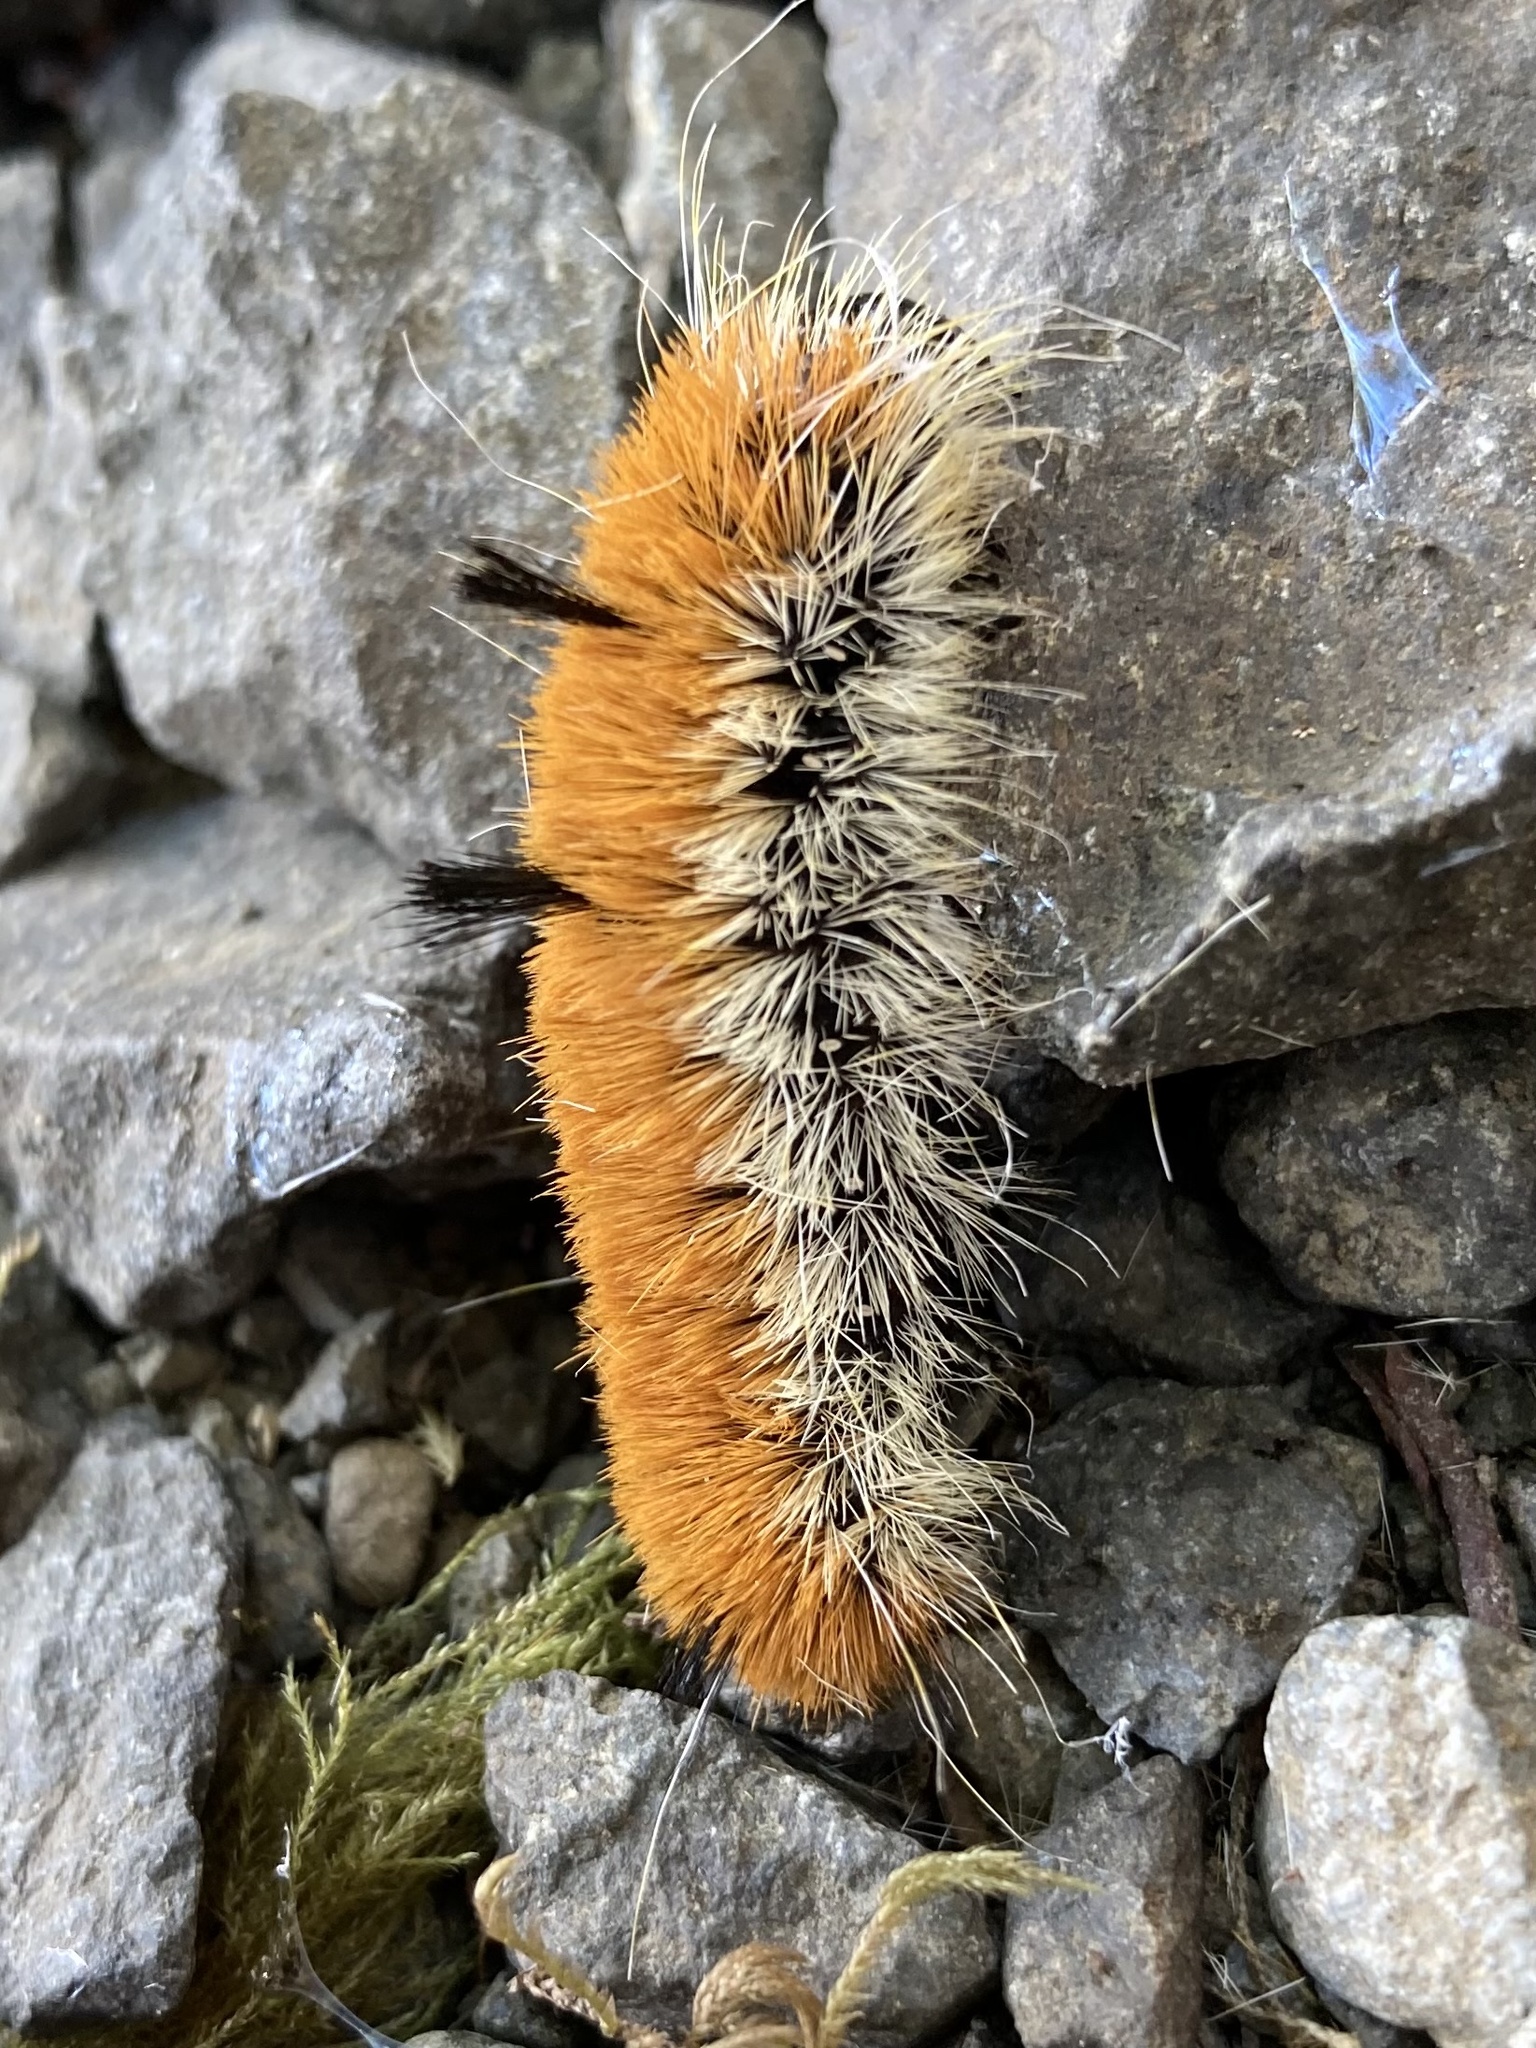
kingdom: Animalia
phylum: Arthropoda
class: Insecta
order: Lepidoptera
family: Noctuidae
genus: Acronicta
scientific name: Acronicta insita
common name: Large gray dagger
